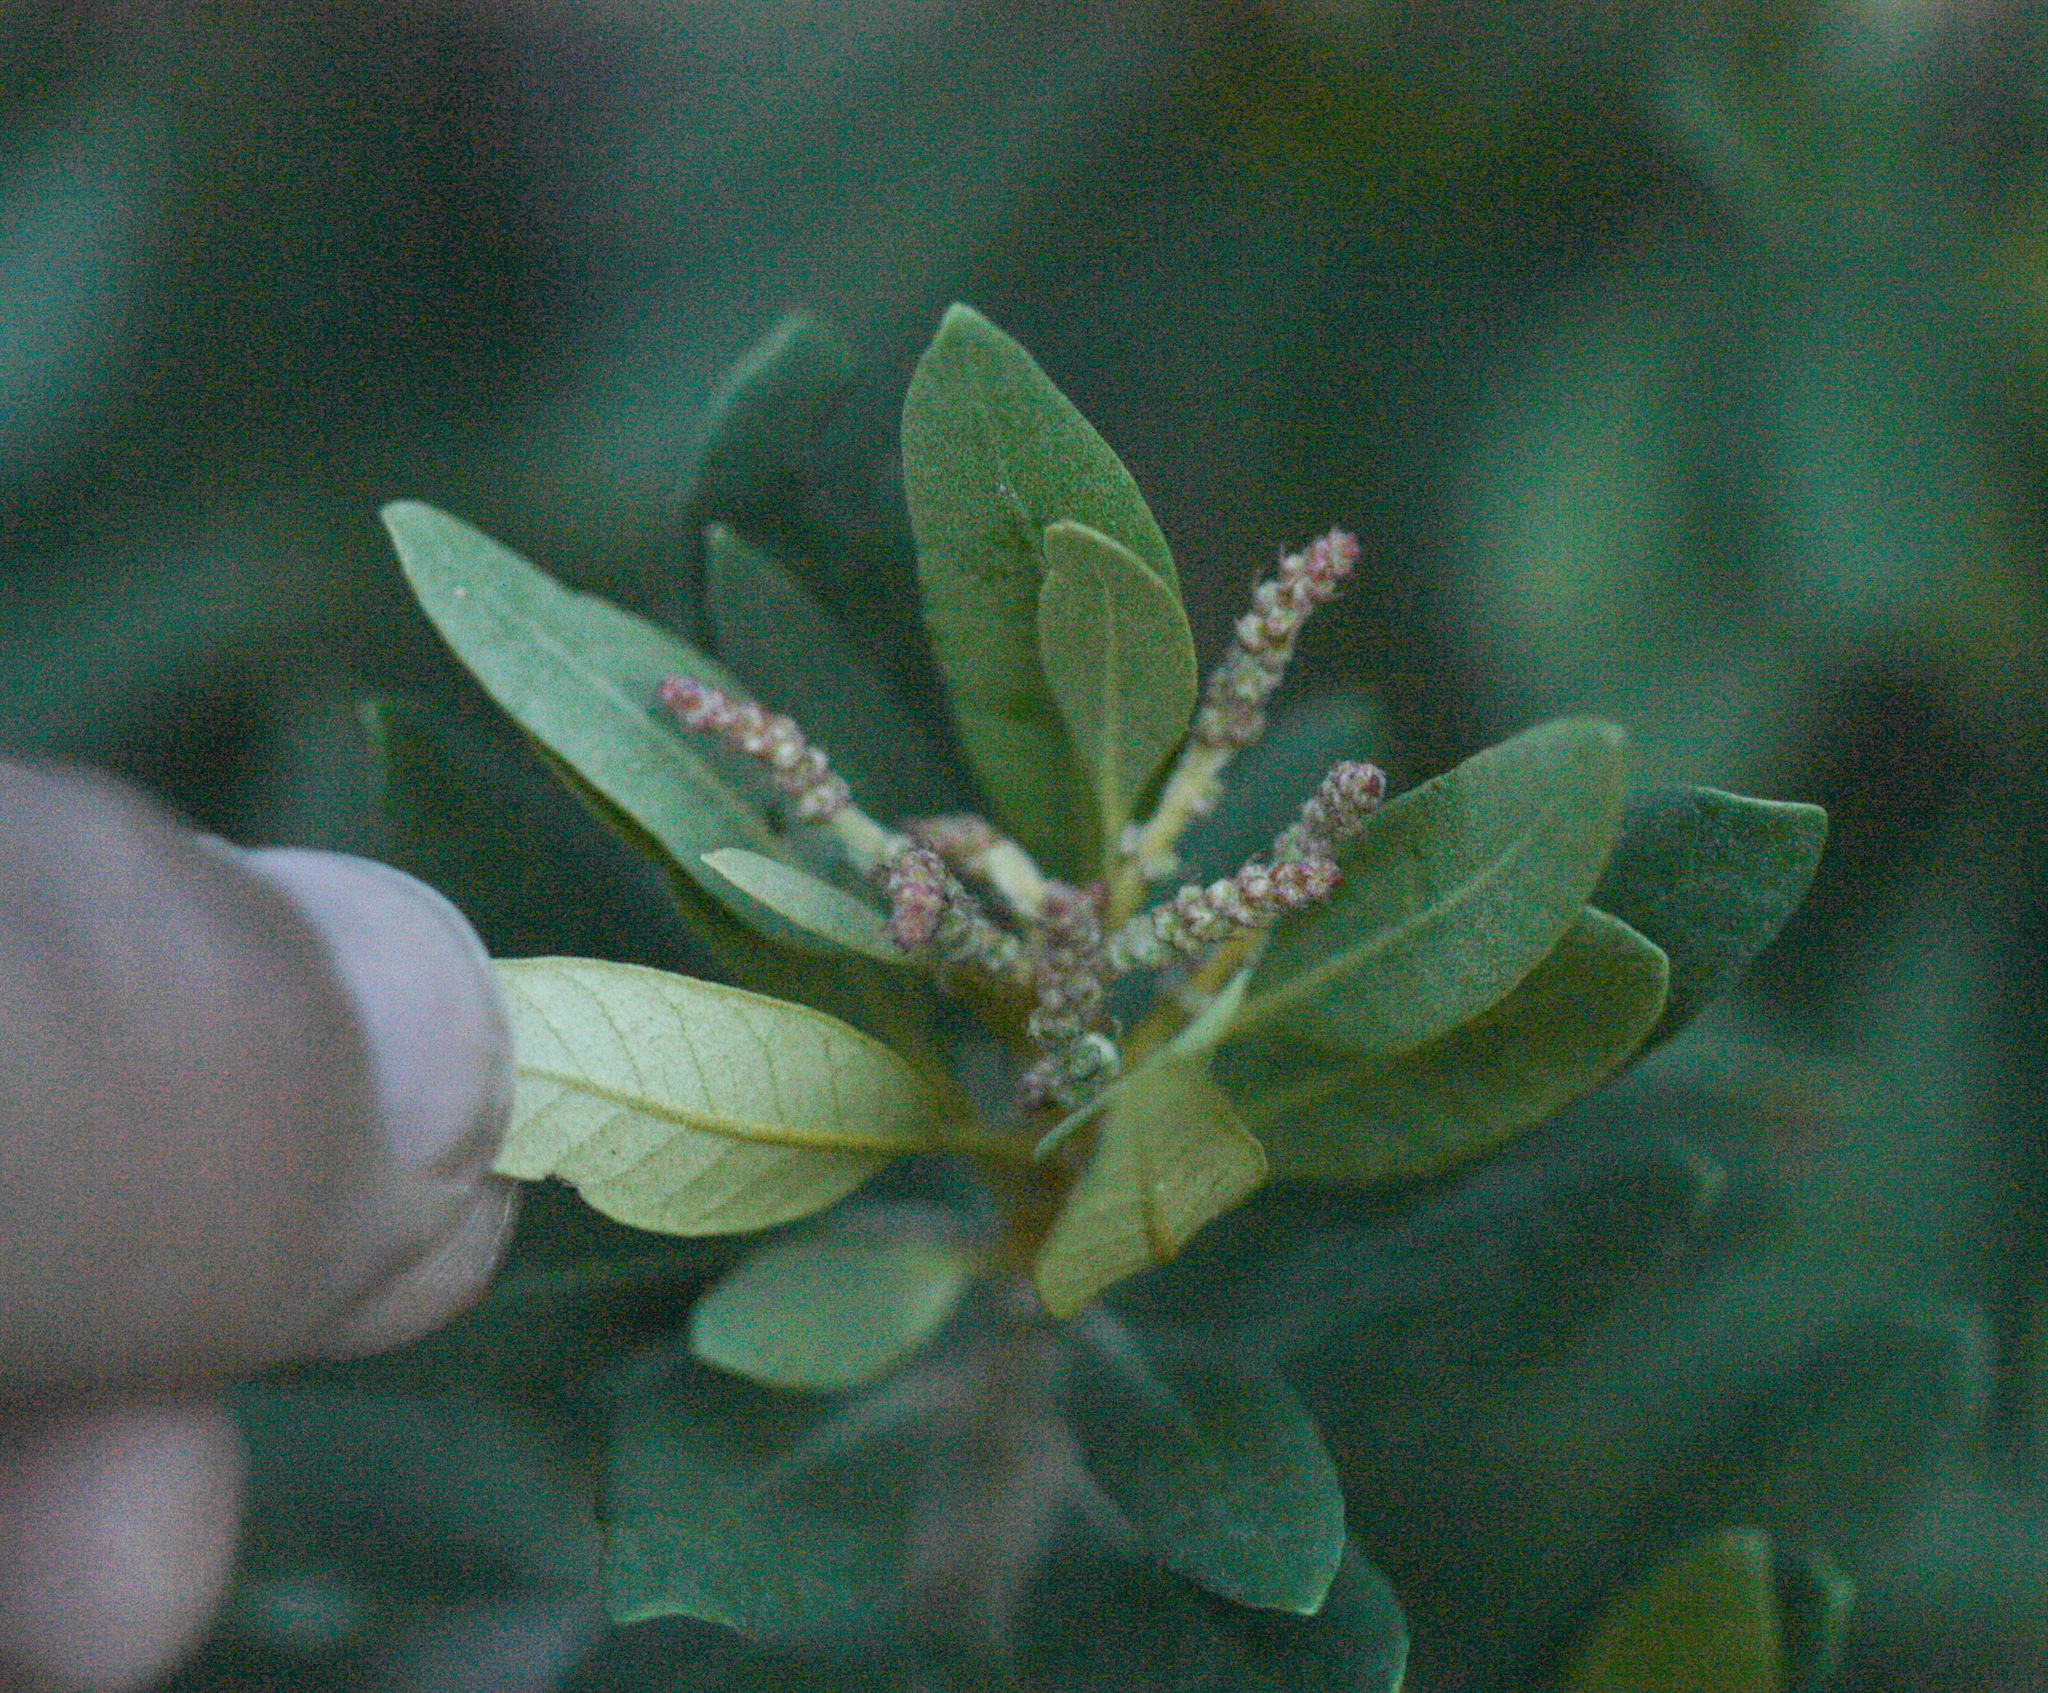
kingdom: Plantae
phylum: Tracheophyta
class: Magnoliopsida
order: Fagales
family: Fagaceae
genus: Chrysolepis
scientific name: Chrysolepis sempervirens
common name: Bush chinquapin
